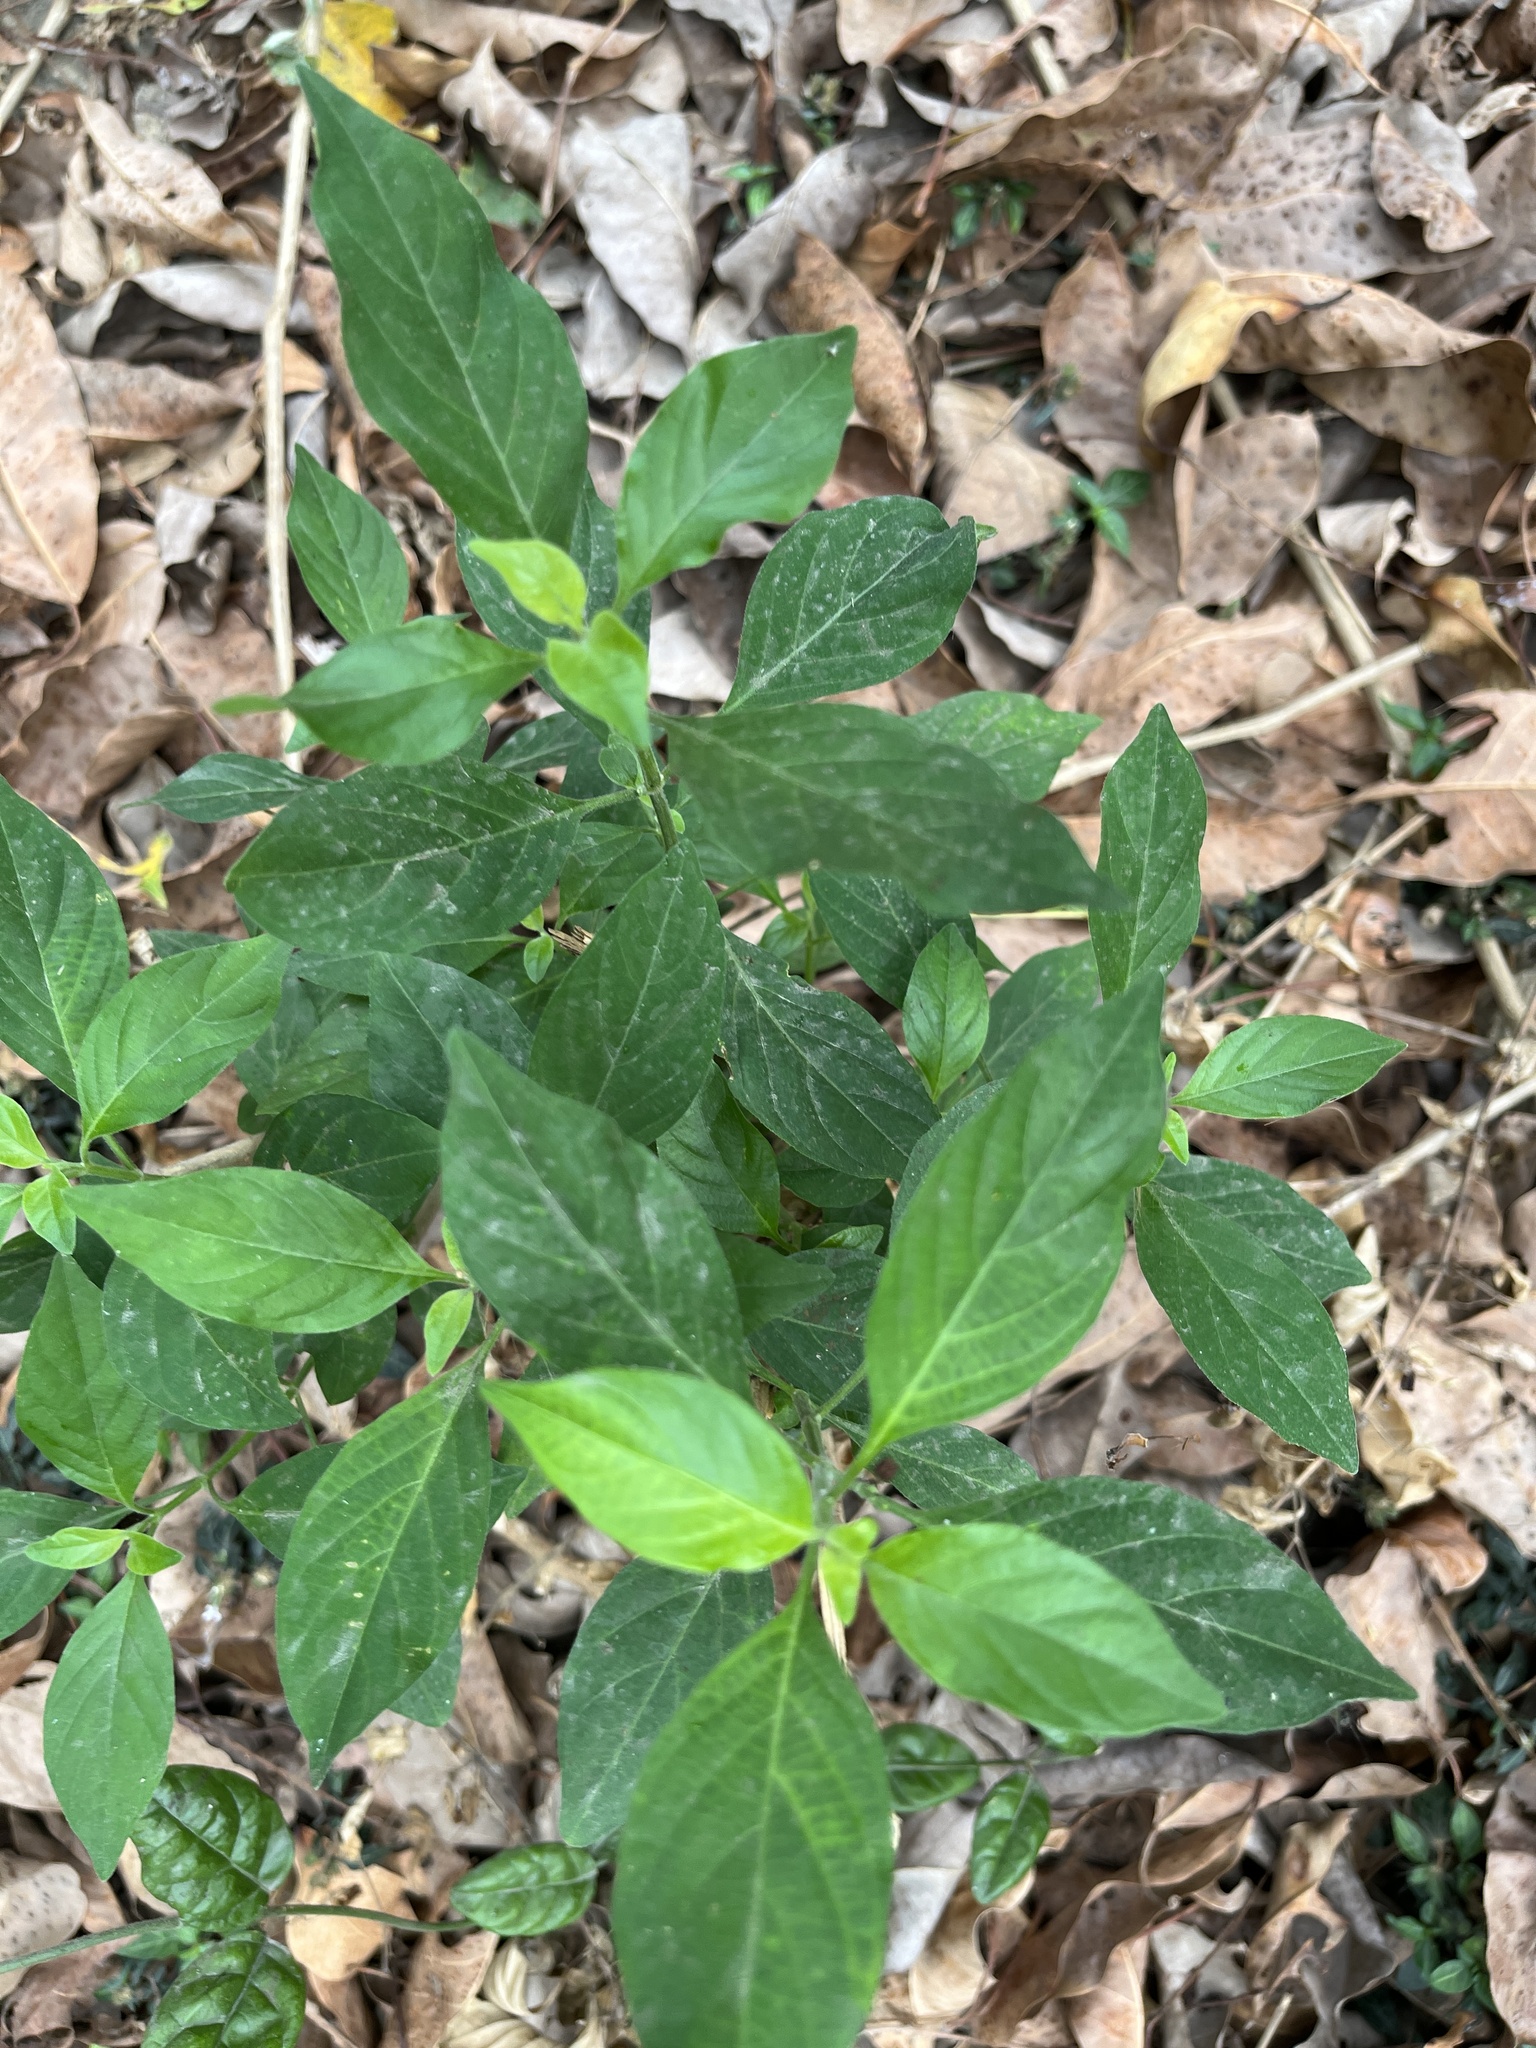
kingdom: Plantae
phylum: Tracheophyta
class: Magnoliopsida
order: Lamiales
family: Acanthaceae
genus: Rhinacanthus
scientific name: Rhinacanthus nasutus
